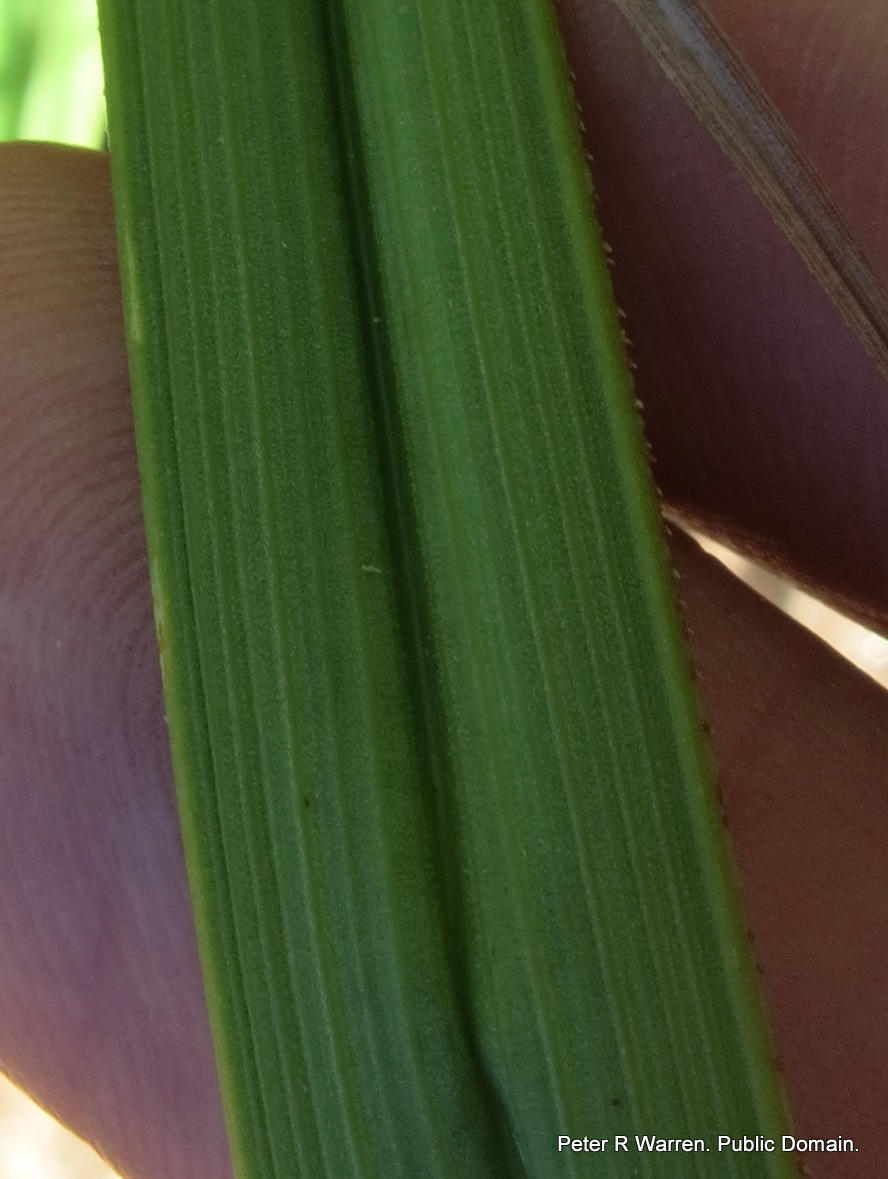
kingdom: Plantae
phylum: Tracheophyta
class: Liliopsida
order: Asparagales
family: Asphodelaceae
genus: Kniphofia
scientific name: Kniphofia laxiflora
